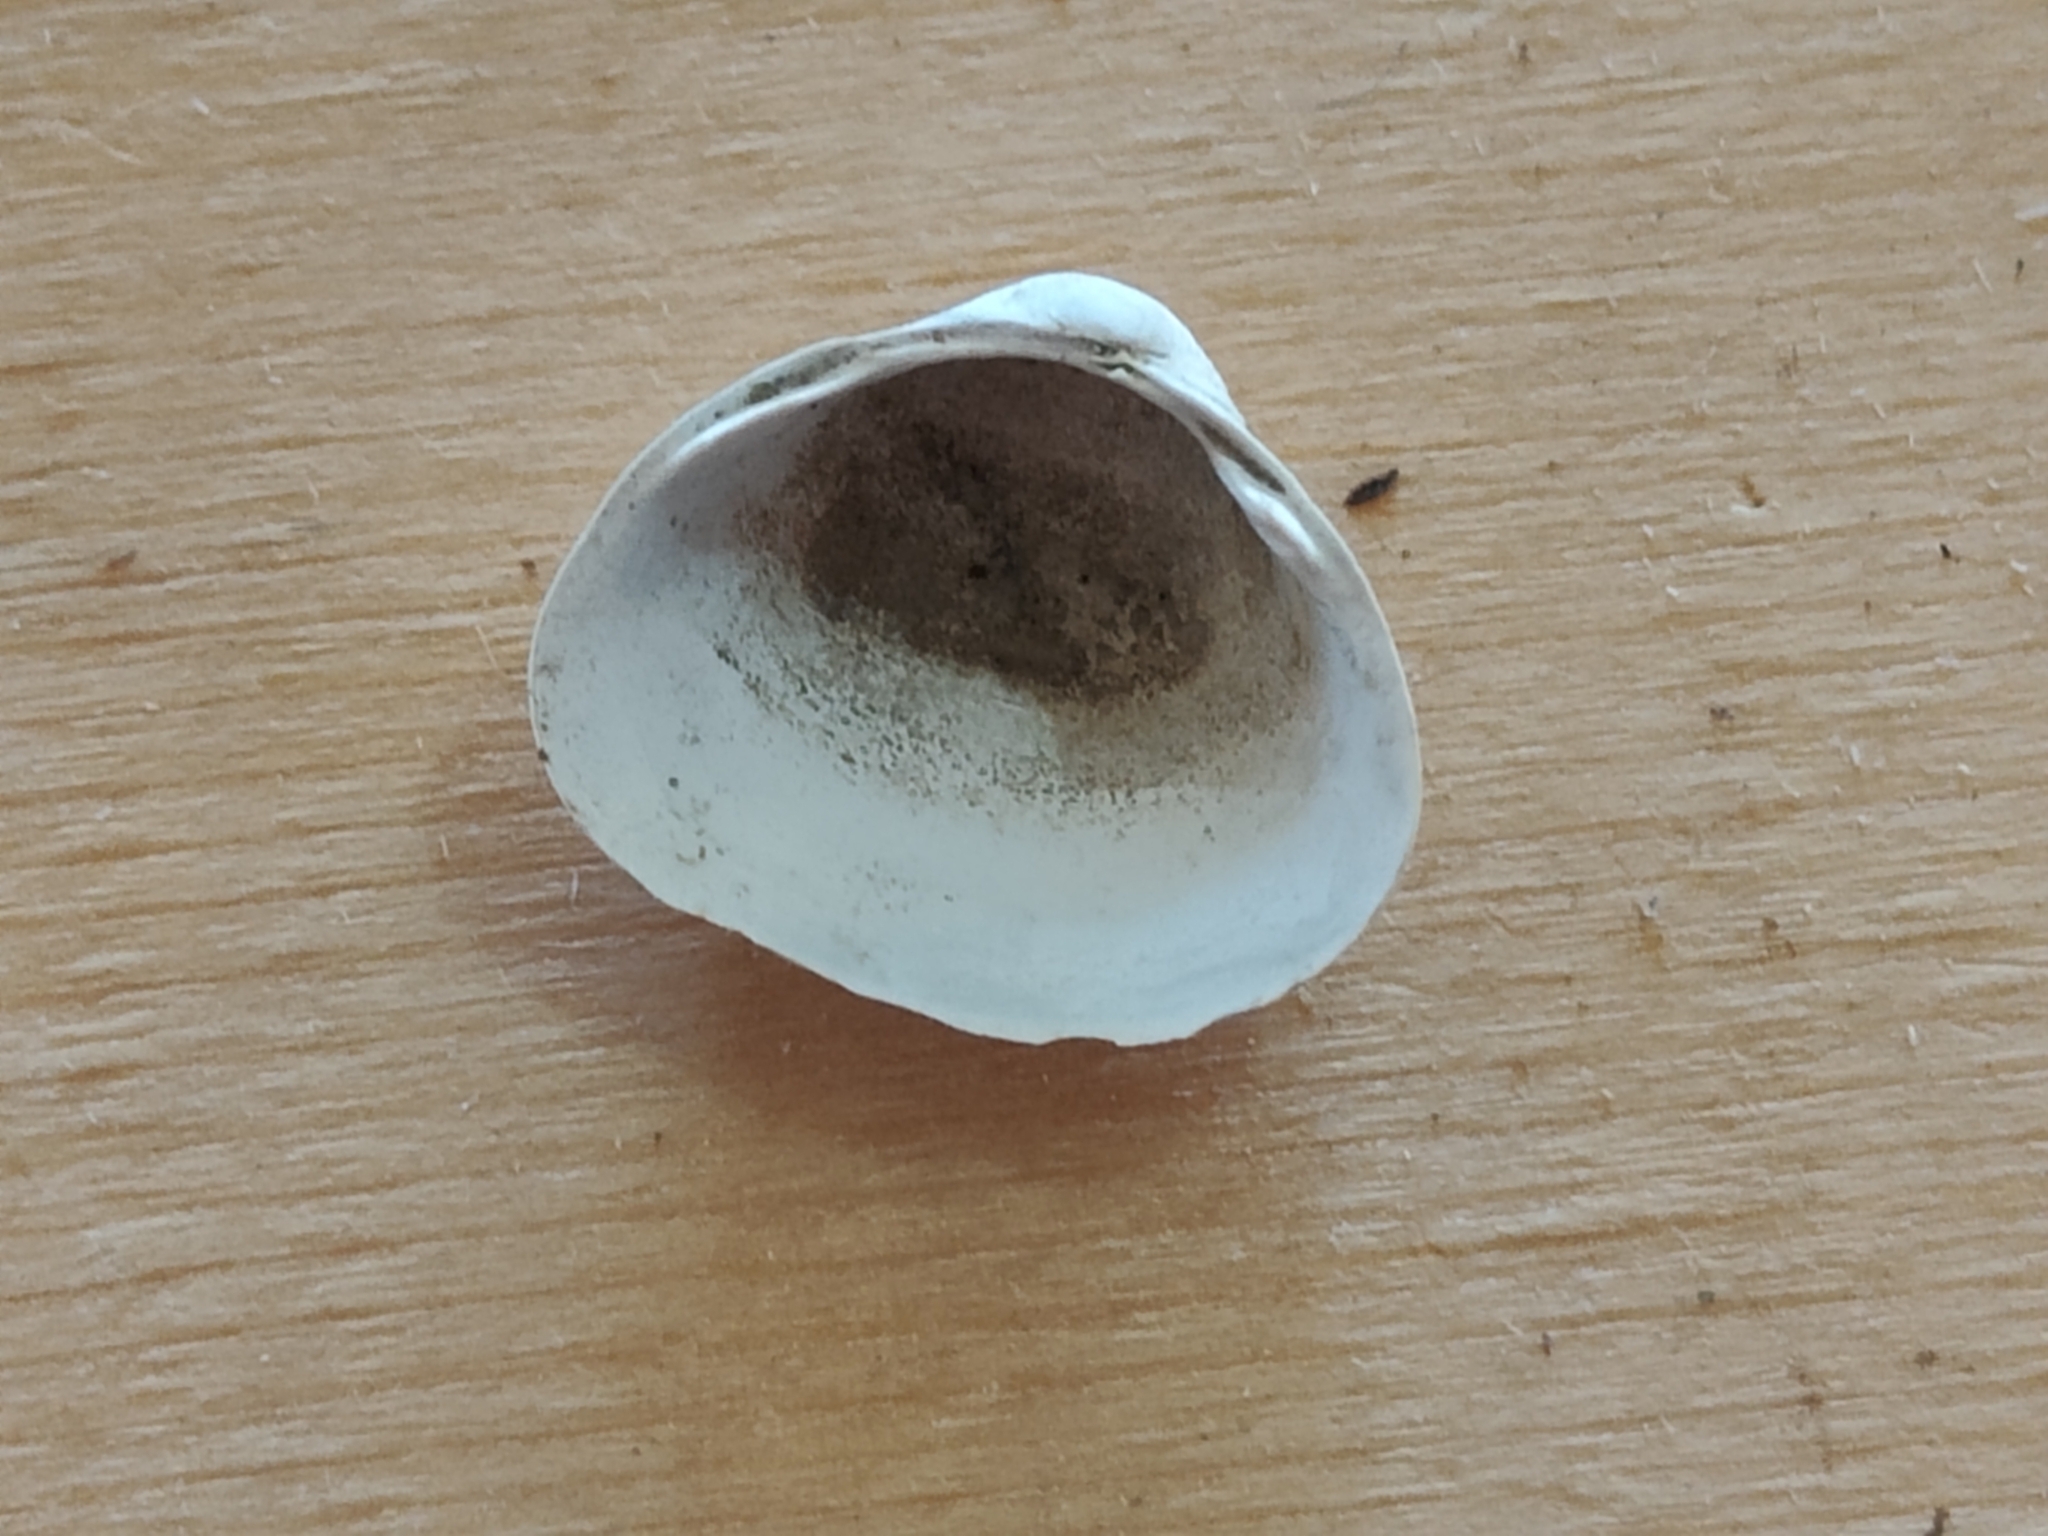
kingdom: Animalia
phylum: Mollusca
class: Bivalvia
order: Sphaeriida
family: Sphaeriidae
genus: Sphaerium
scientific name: Sphaerium striatinum
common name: Striated fingernailclam
